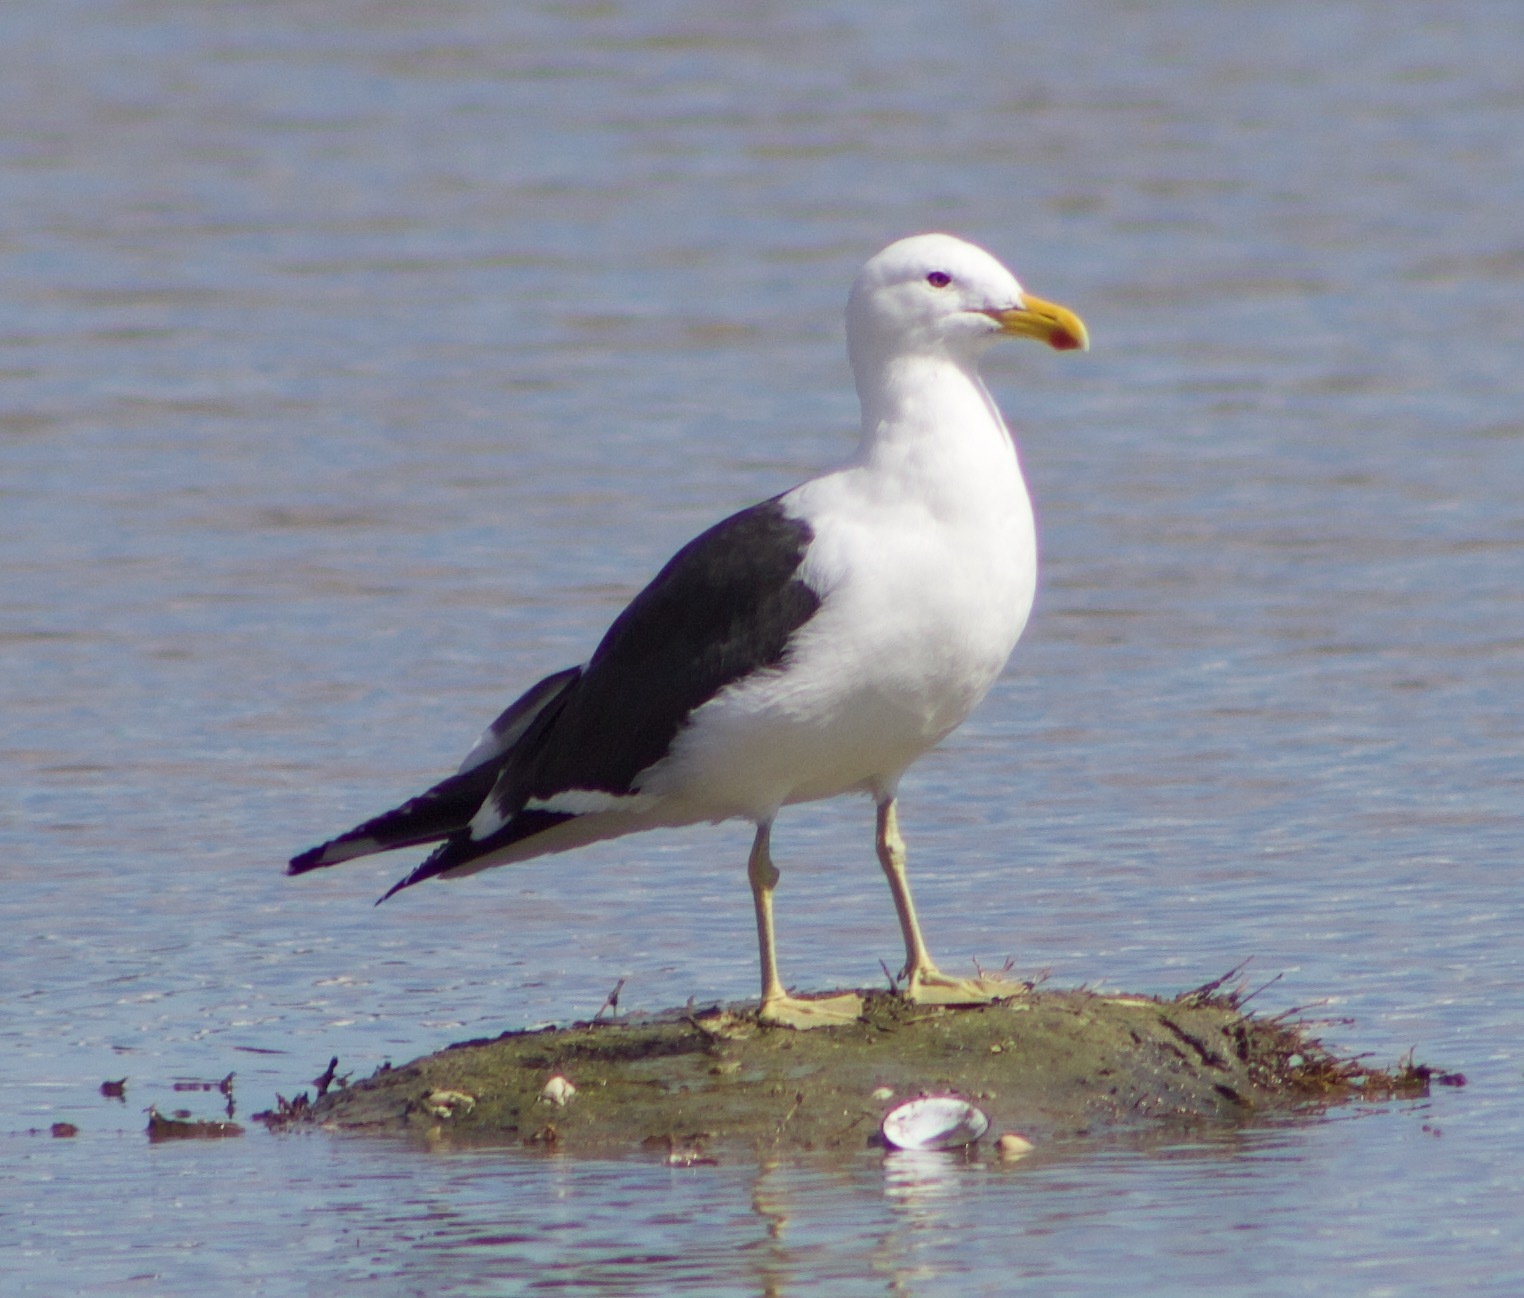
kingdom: Animalia
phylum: Chordata
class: Aves
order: Charadriiformes
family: Laridae
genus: Larus
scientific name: Larus dominicanus
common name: Kelp gull
